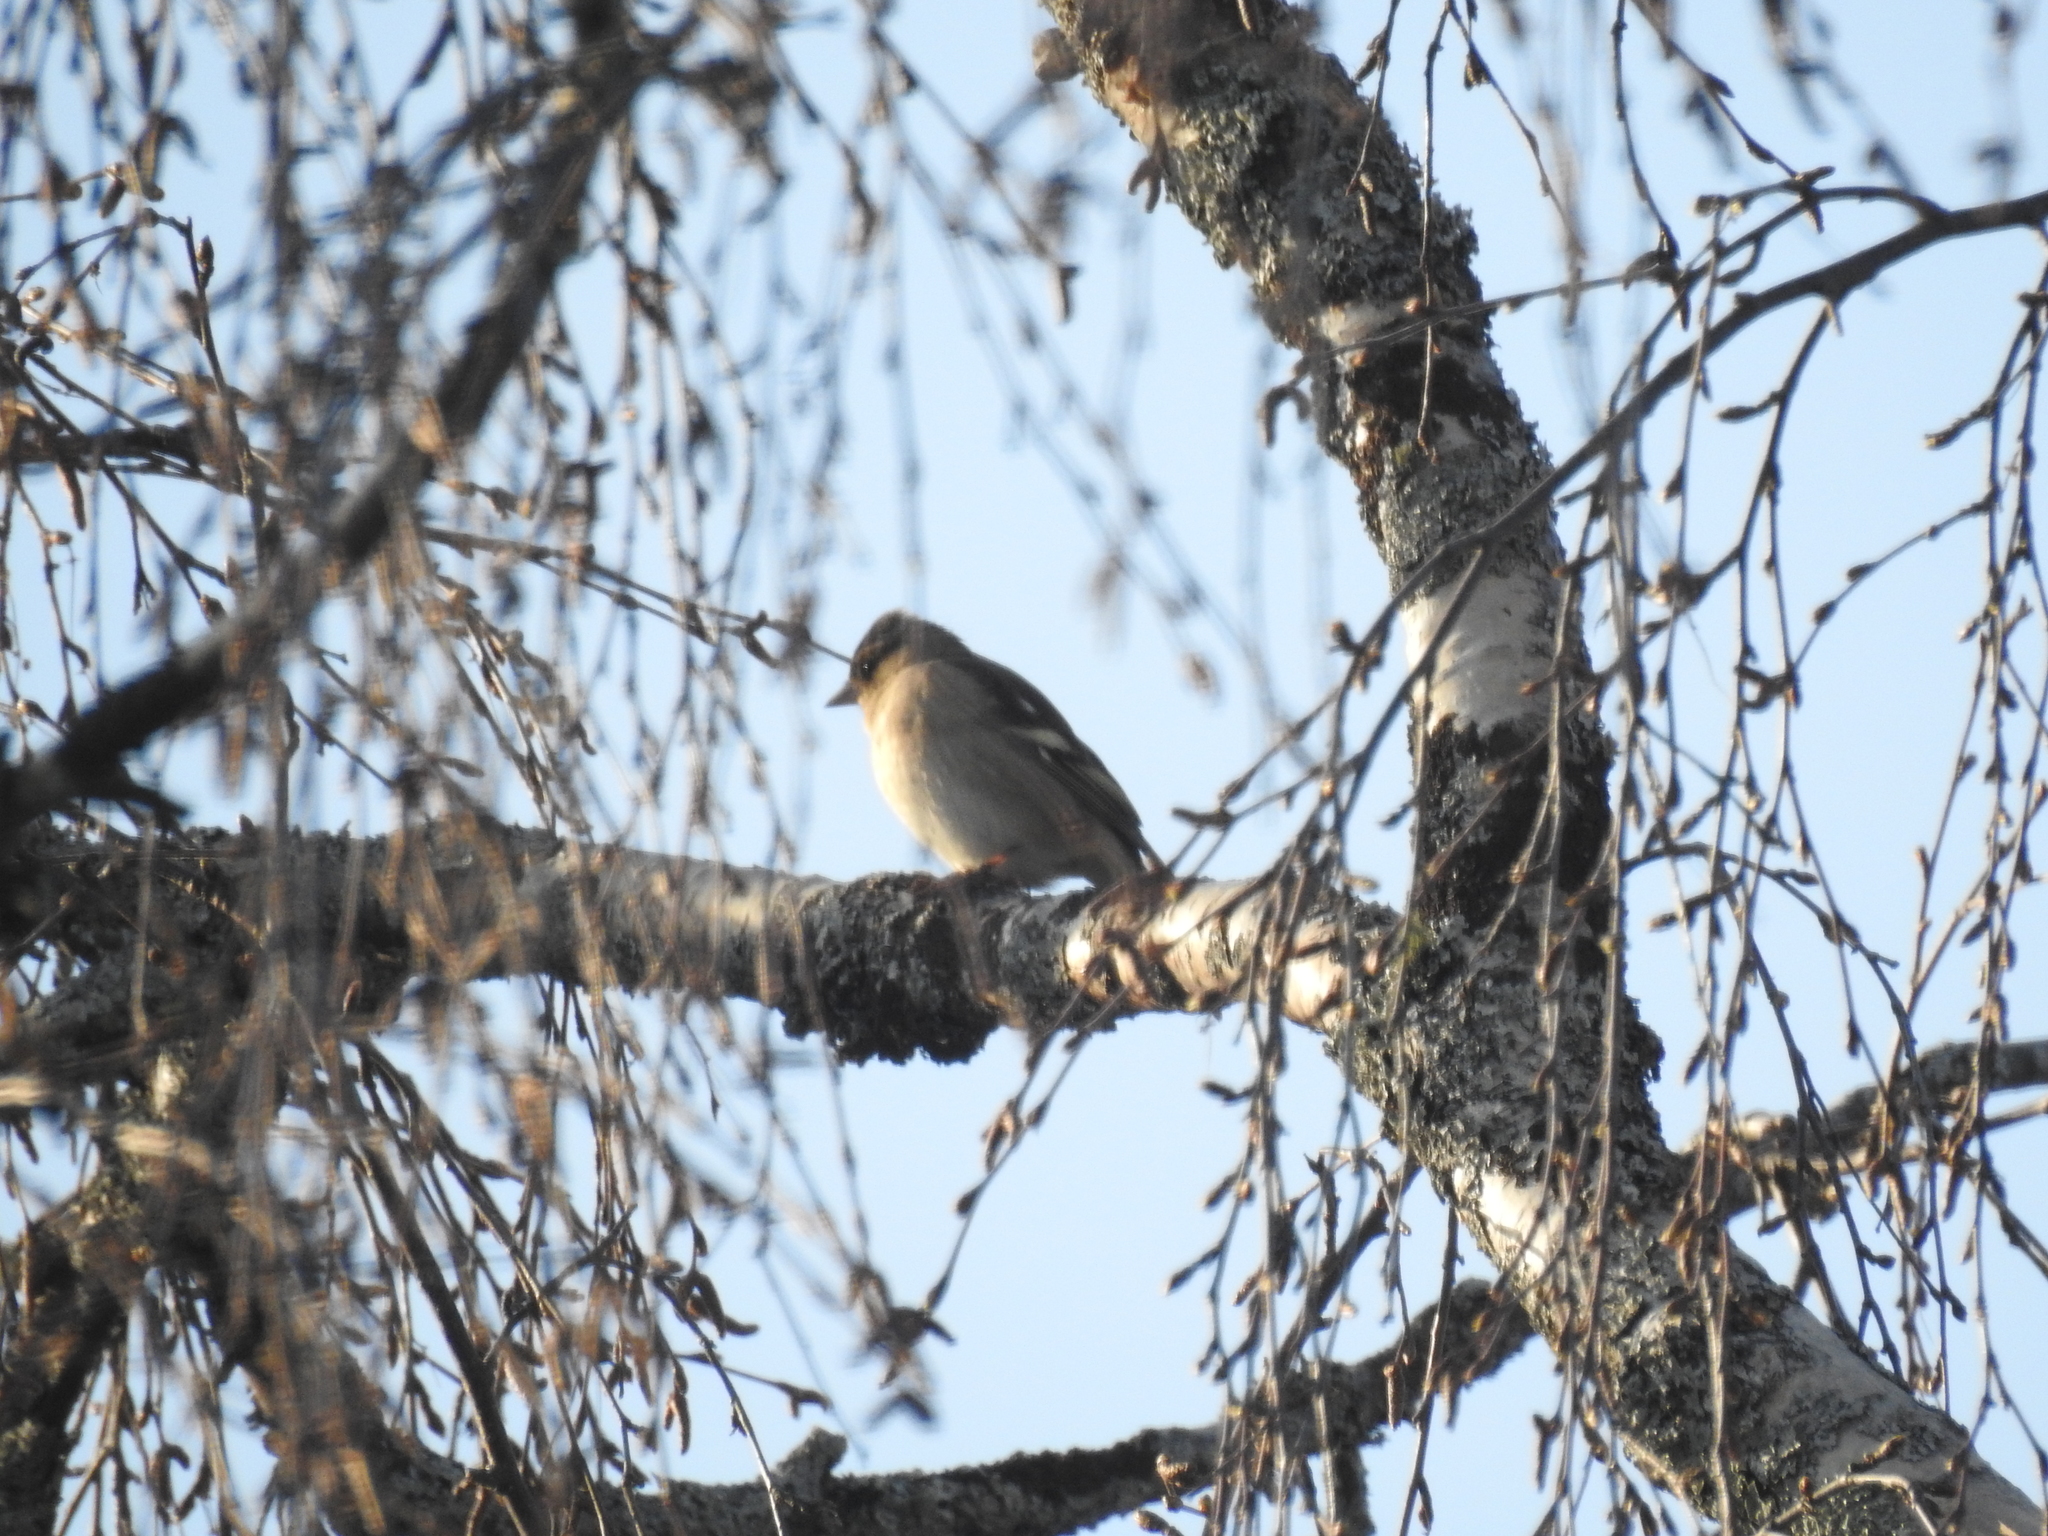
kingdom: Animalia
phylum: Chordata
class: Aves
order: Passeriformes
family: Fringillidae
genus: Fringilla
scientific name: Fringilla coelebs
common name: Common chaffinch
